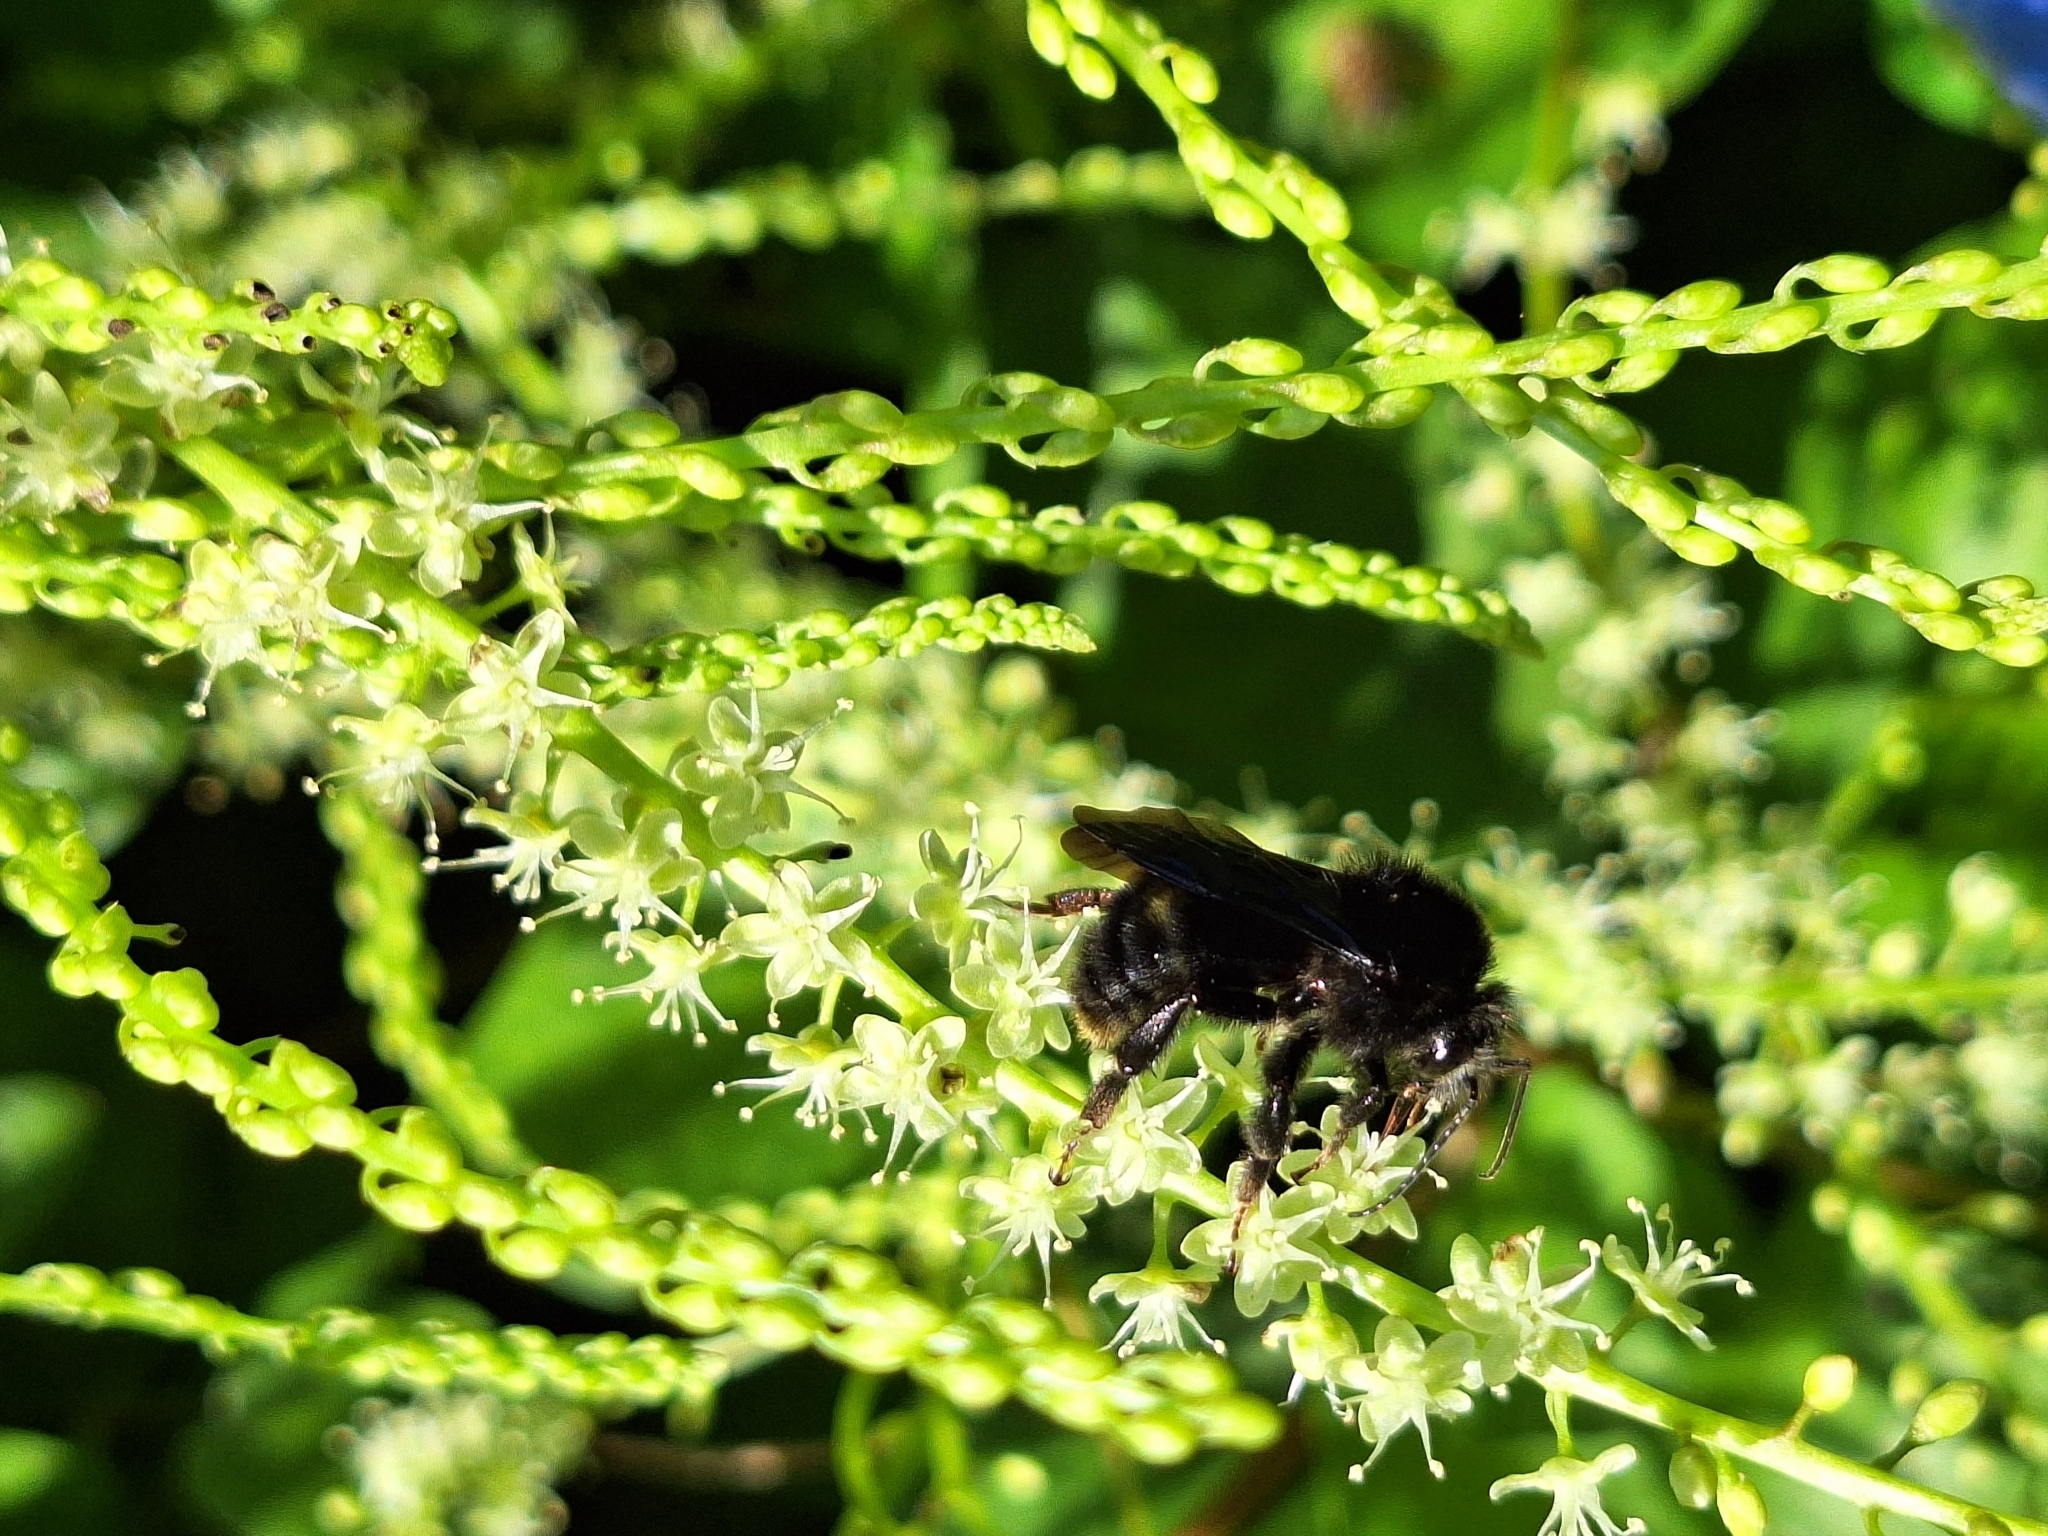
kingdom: Animalia
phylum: Arthropoda
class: Insecta
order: Hymenoptera
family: Apidae
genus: Bombus
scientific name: Bombus morio
